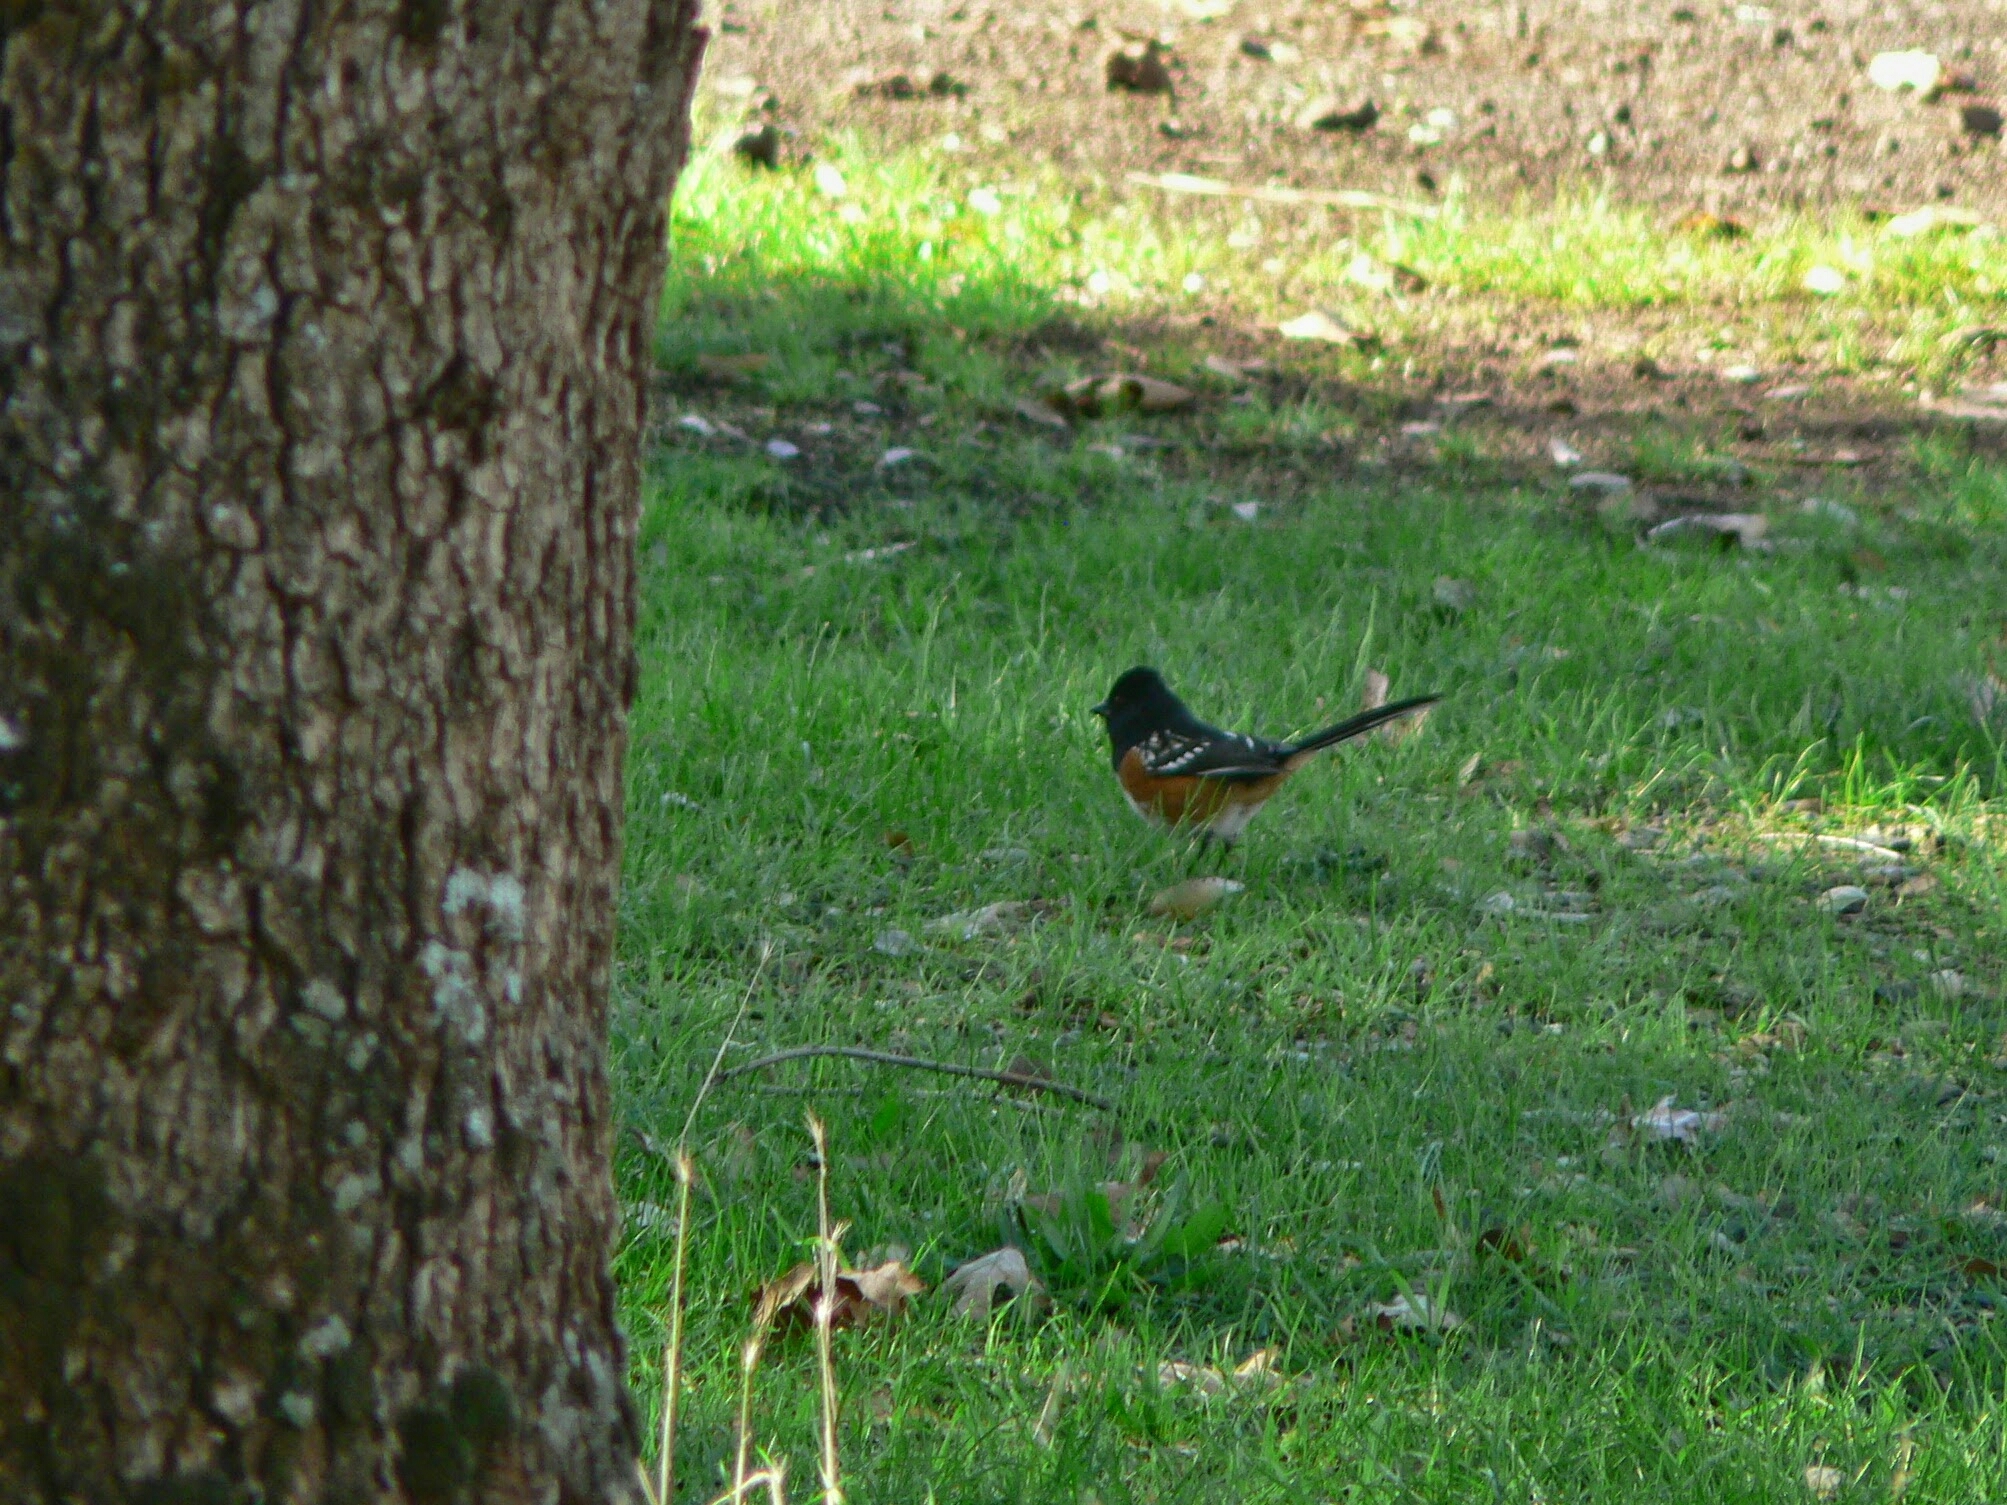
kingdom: Animalia
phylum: Chordata
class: Aves
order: Passeriformes
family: Passerellidae
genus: Pipilo
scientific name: Pipilo maculatus
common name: Spotted towhee
